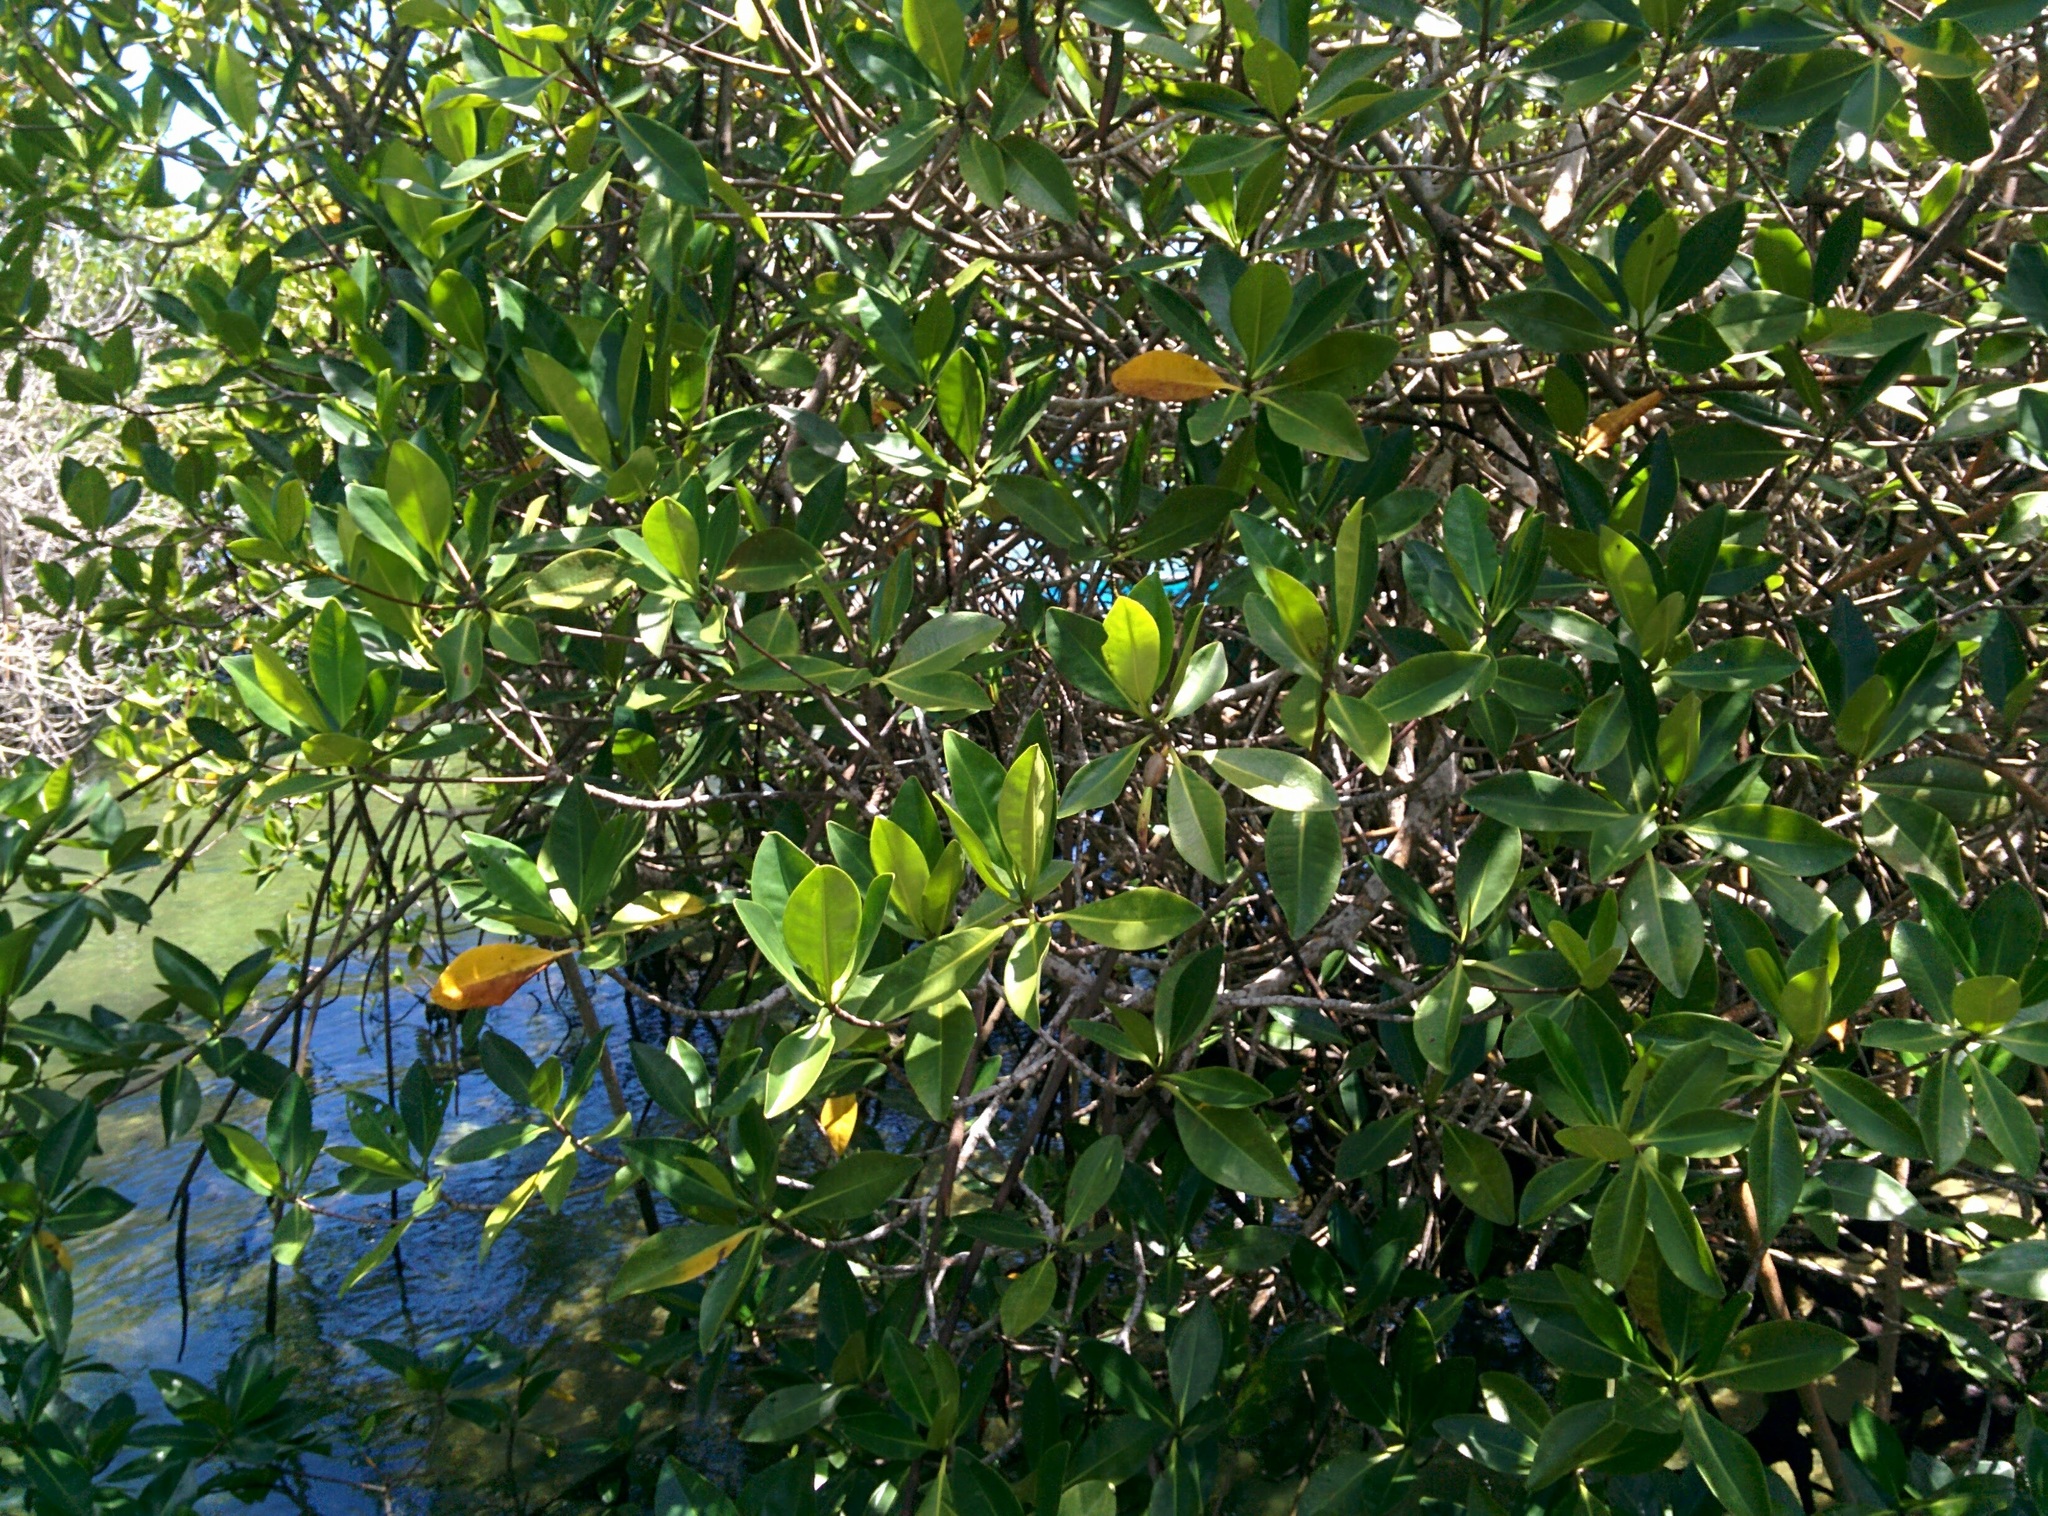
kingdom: Plantae
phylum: Tracheophyta
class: Magnoliopsida
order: Malpighiales
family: Rhizophoraceae
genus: Rhizophora
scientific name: Rhizophora mangle
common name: Red mangrove
